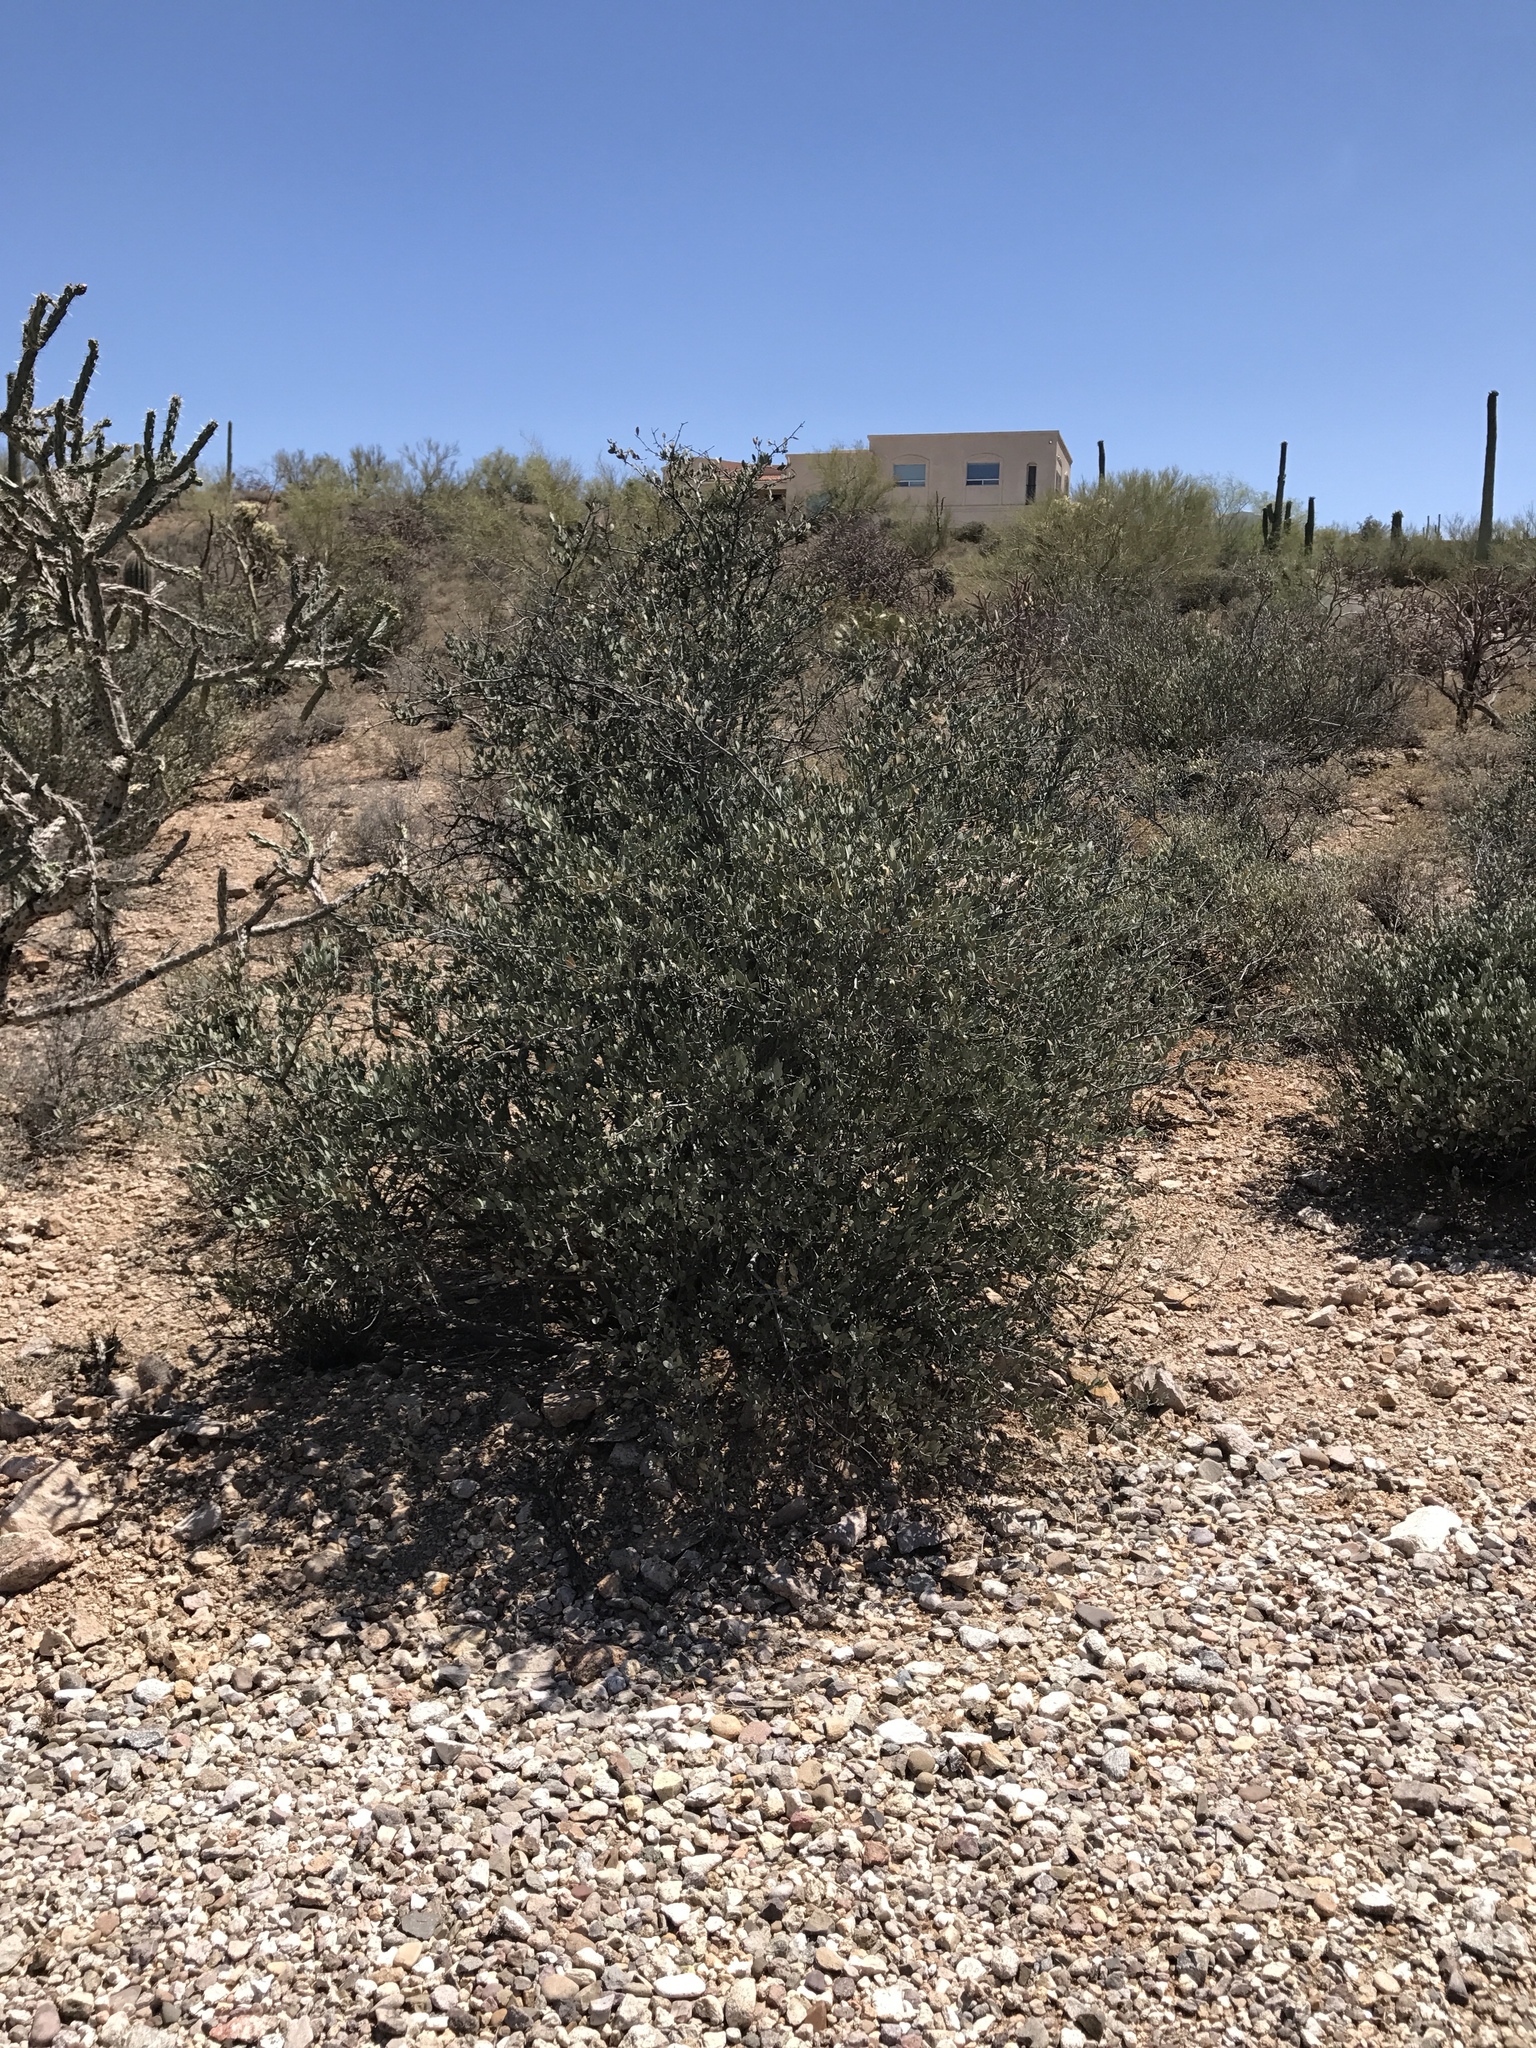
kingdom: Plantae
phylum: Tracheophyta
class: Magnoliopsida
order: Caryophyllales
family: Simmondsiaceae
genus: Simmondsia
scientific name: Simmondsia chinensis
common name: Jojoba
